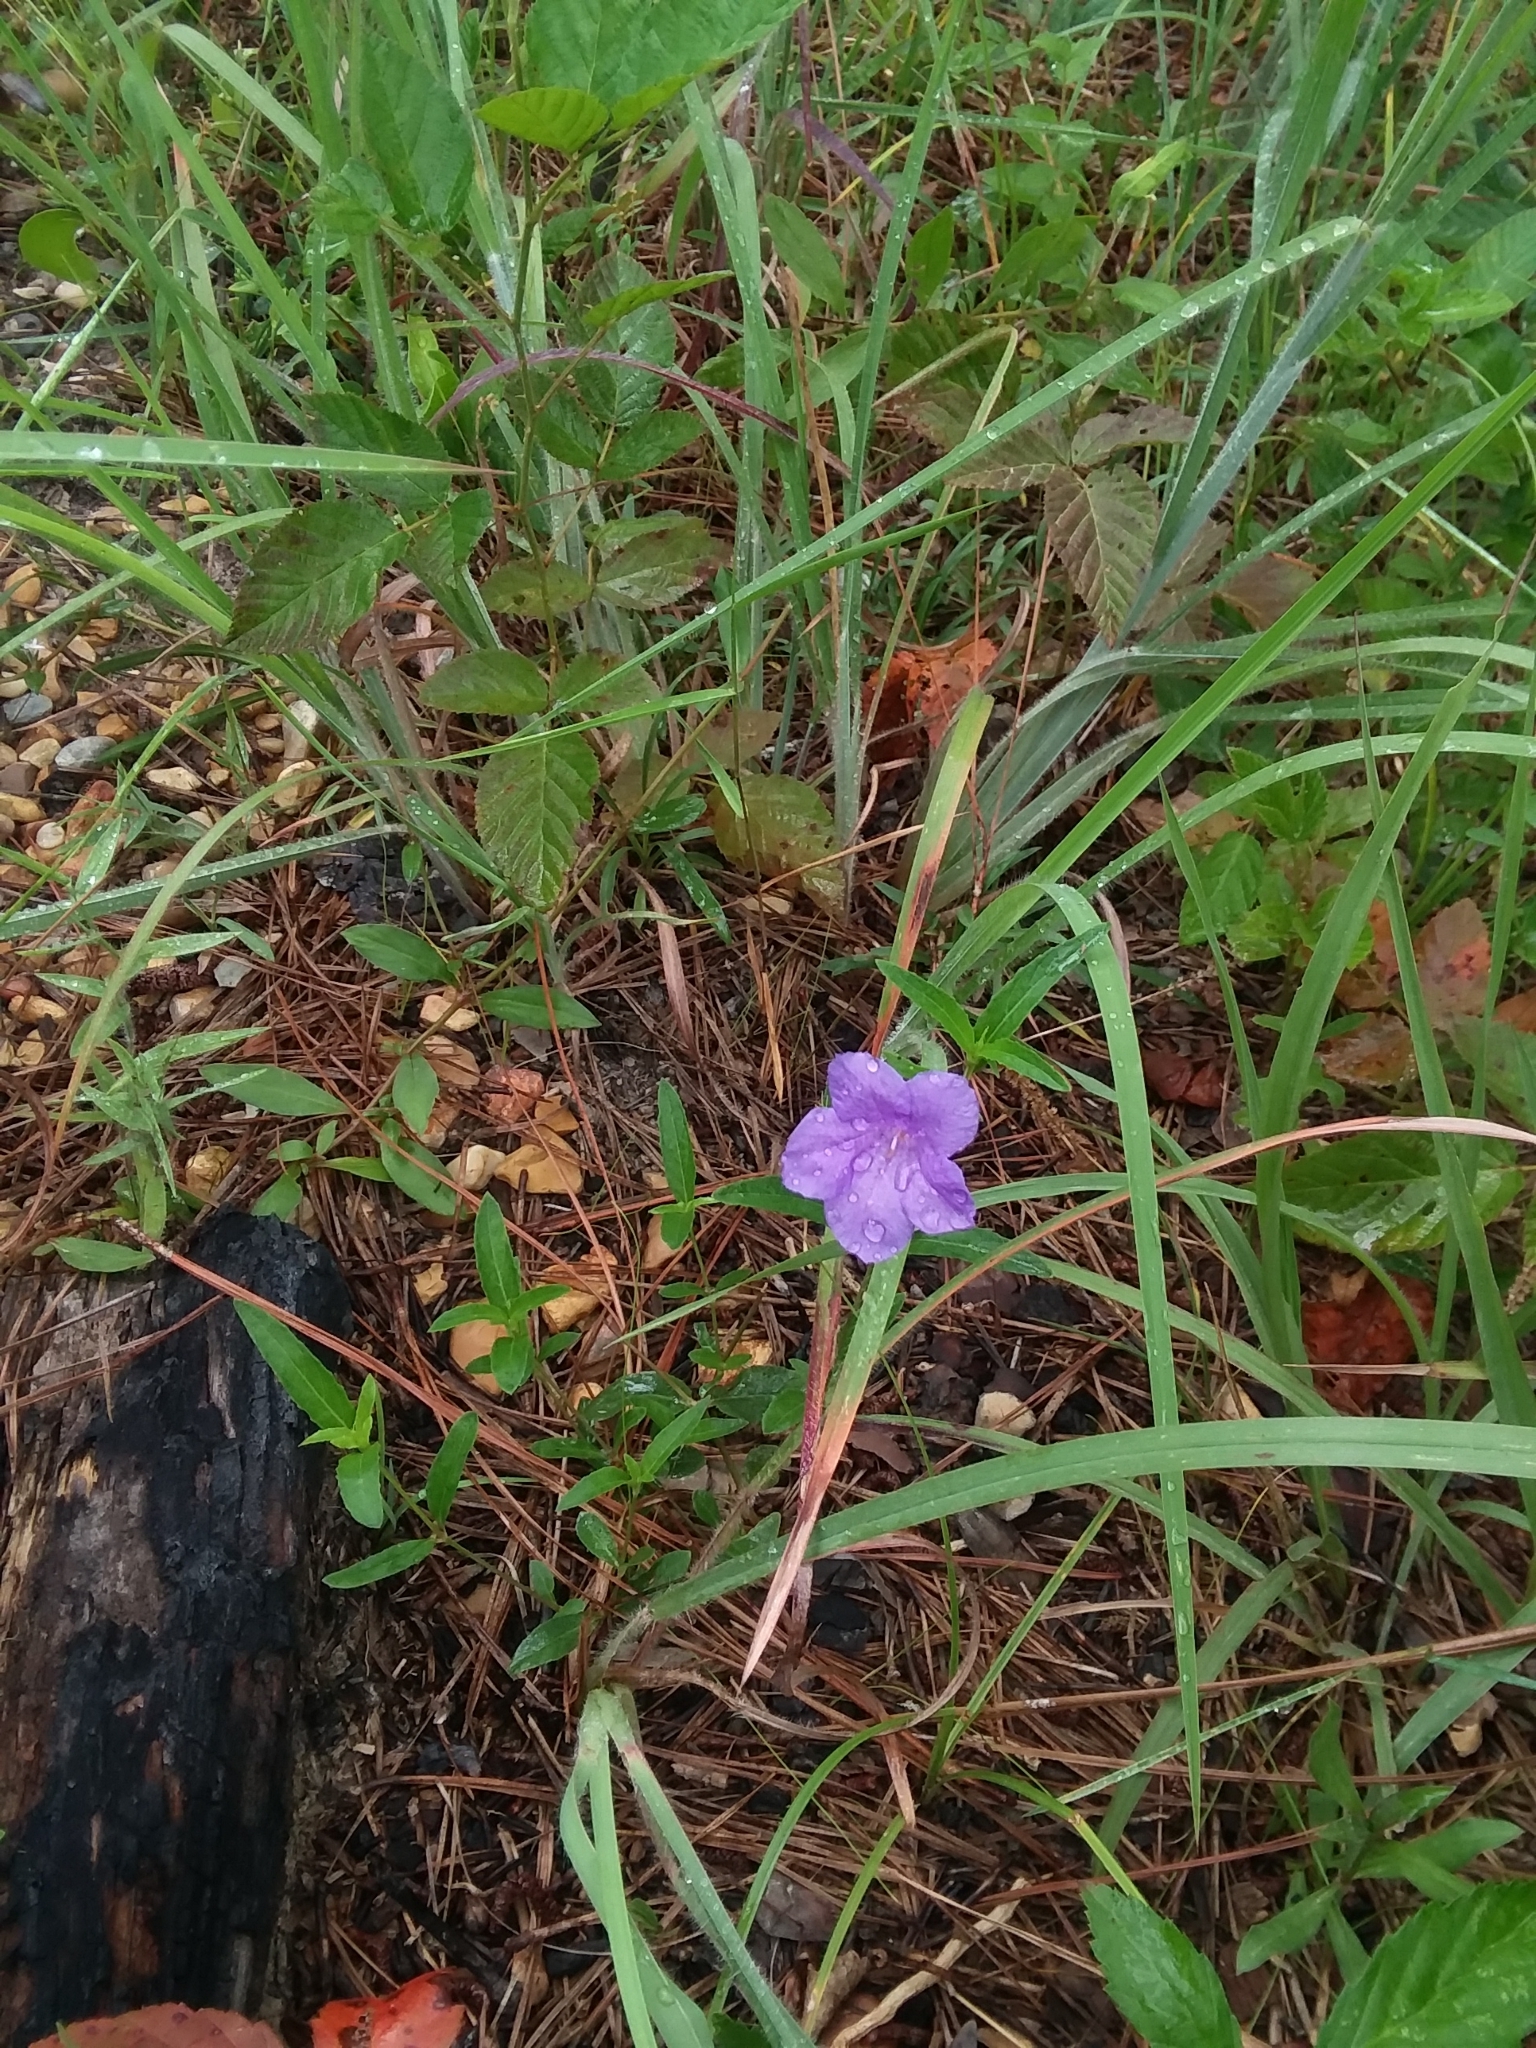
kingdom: Plantae
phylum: Tracheophyta
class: Magnoliopsida
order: Lamiales
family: Acanthaceae
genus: Ruellia
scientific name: Ruellia pedunculata
